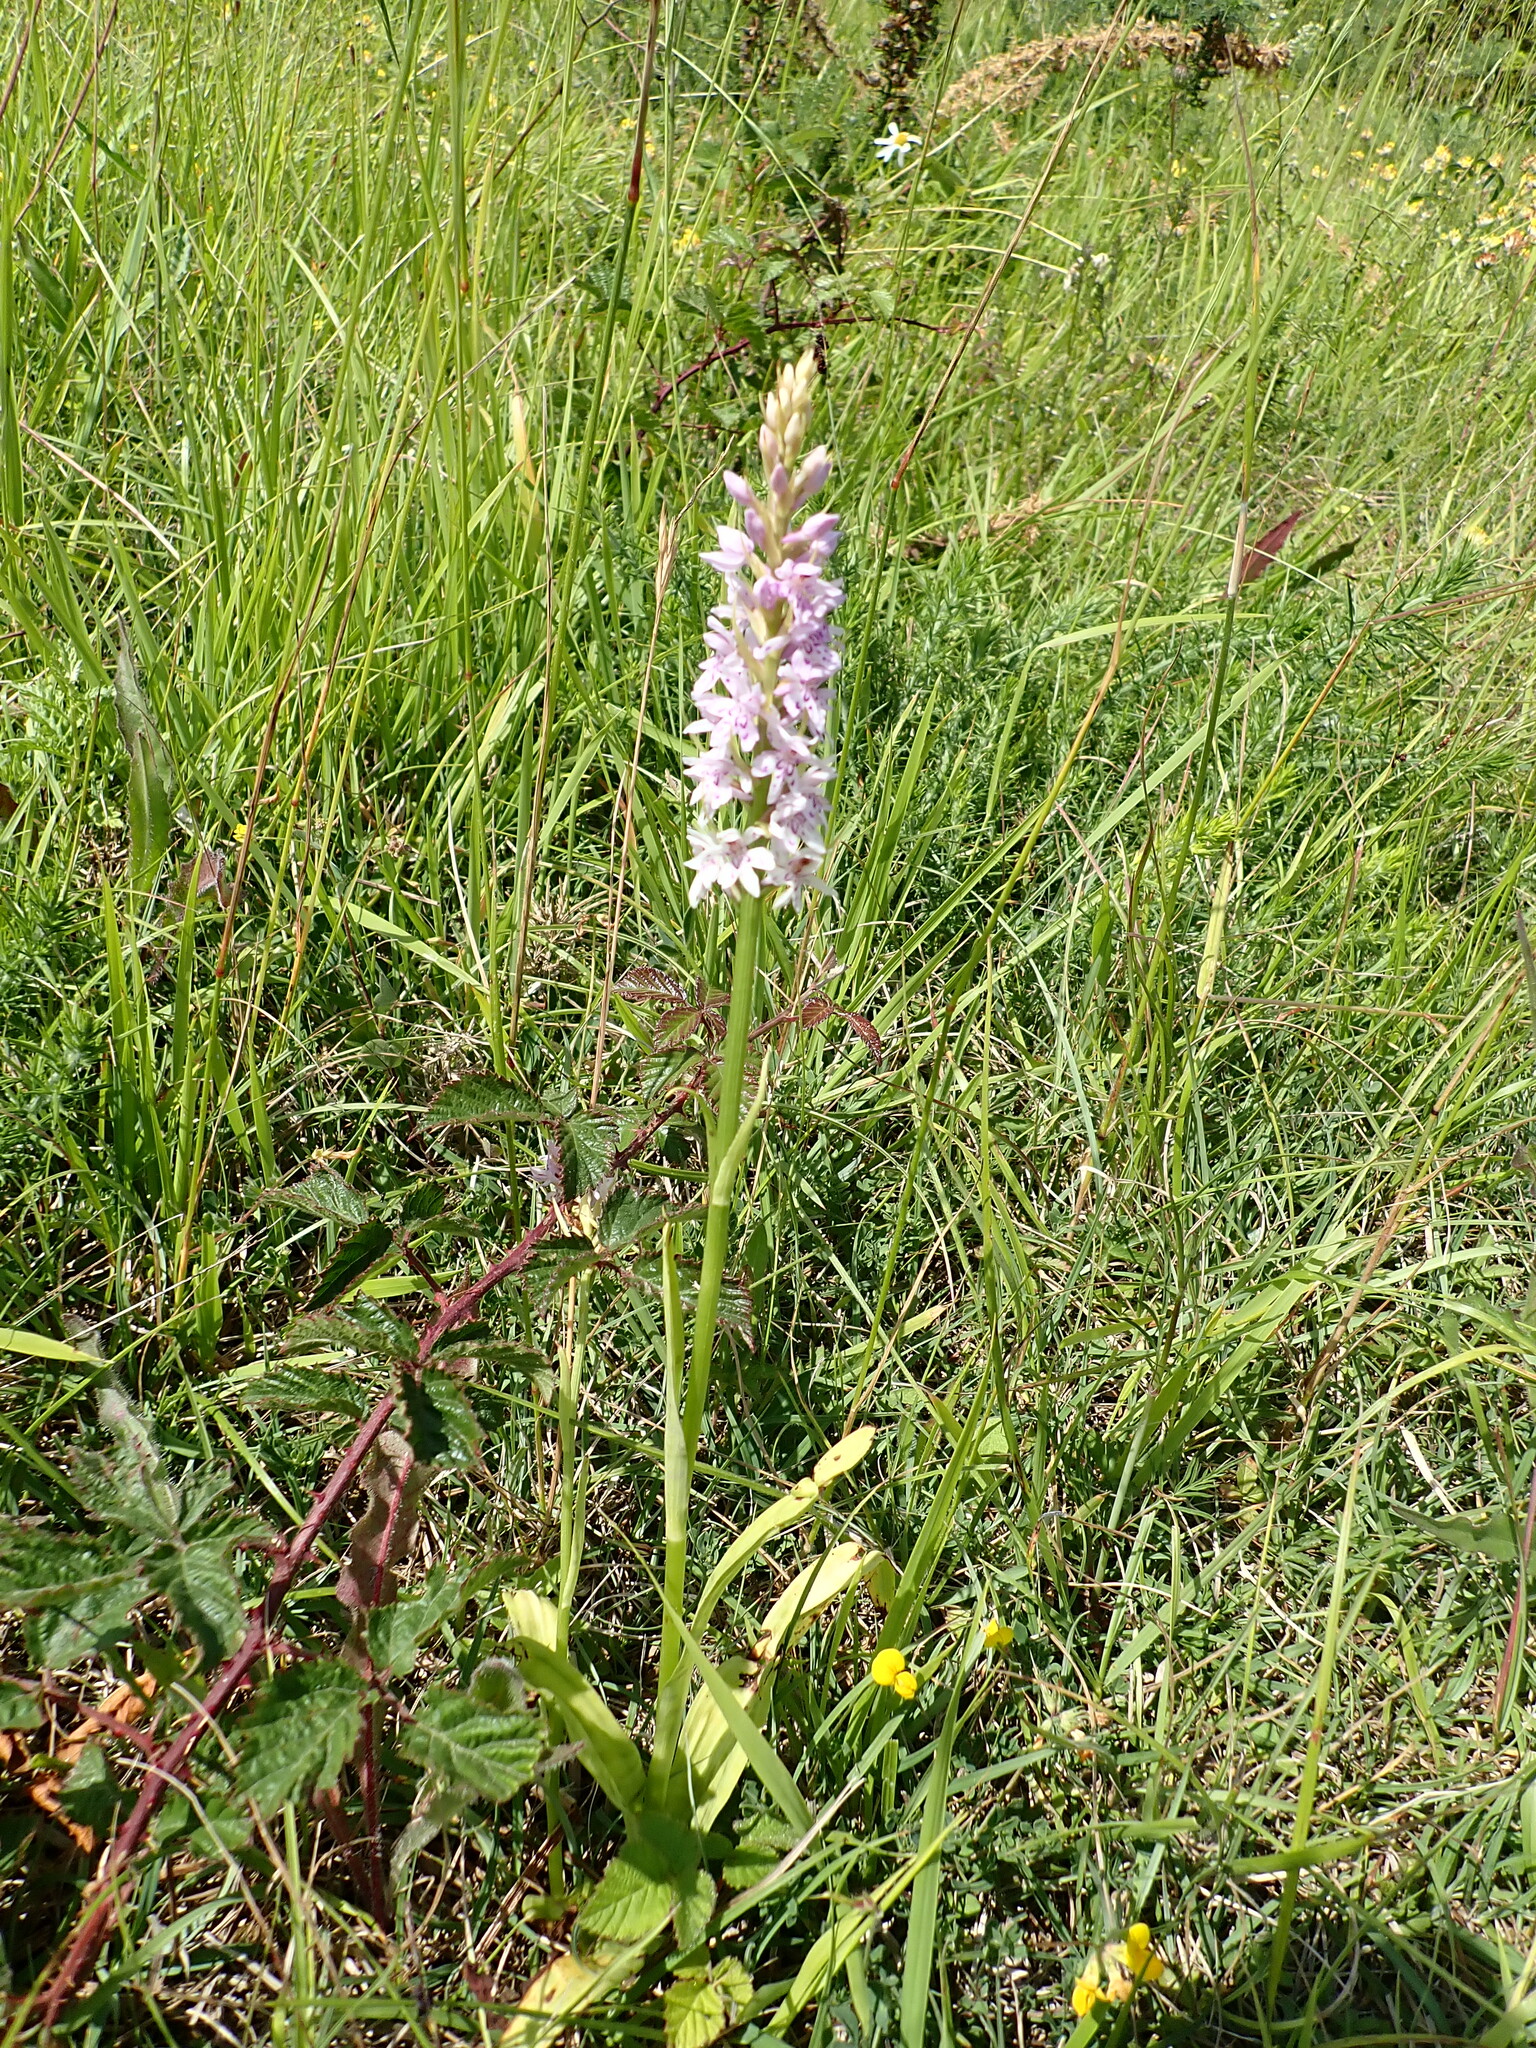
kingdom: Plantae
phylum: Tracheophyta
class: Liliopsida
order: Asparagales
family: Orchidaceae
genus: Dactylorhiza
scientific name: Dactylorhiza maculata
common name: Heath spotted-orchid
